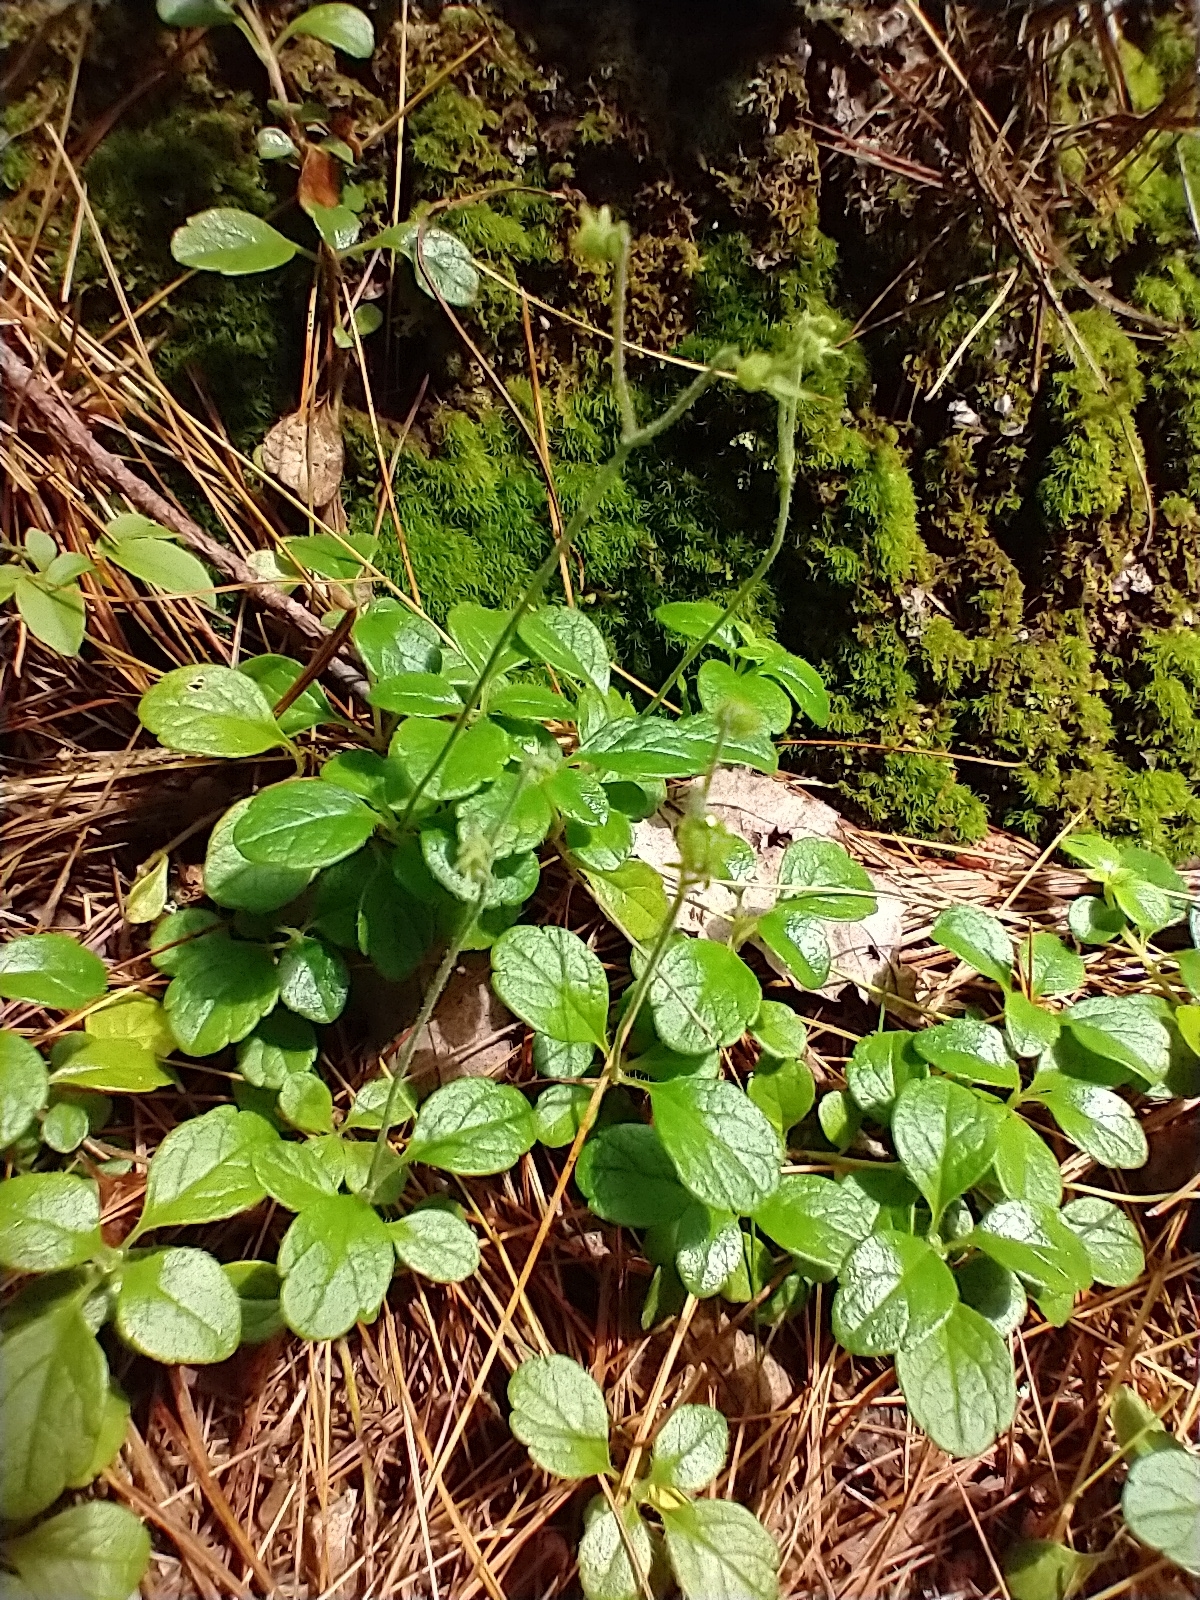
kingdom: Plantae
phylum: Tracheophyta
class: Magnoliopsida
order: Dipsacales
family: Caprifoliaceae
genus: Linnaea
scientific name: Linnaea borealis
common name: Twinflower
